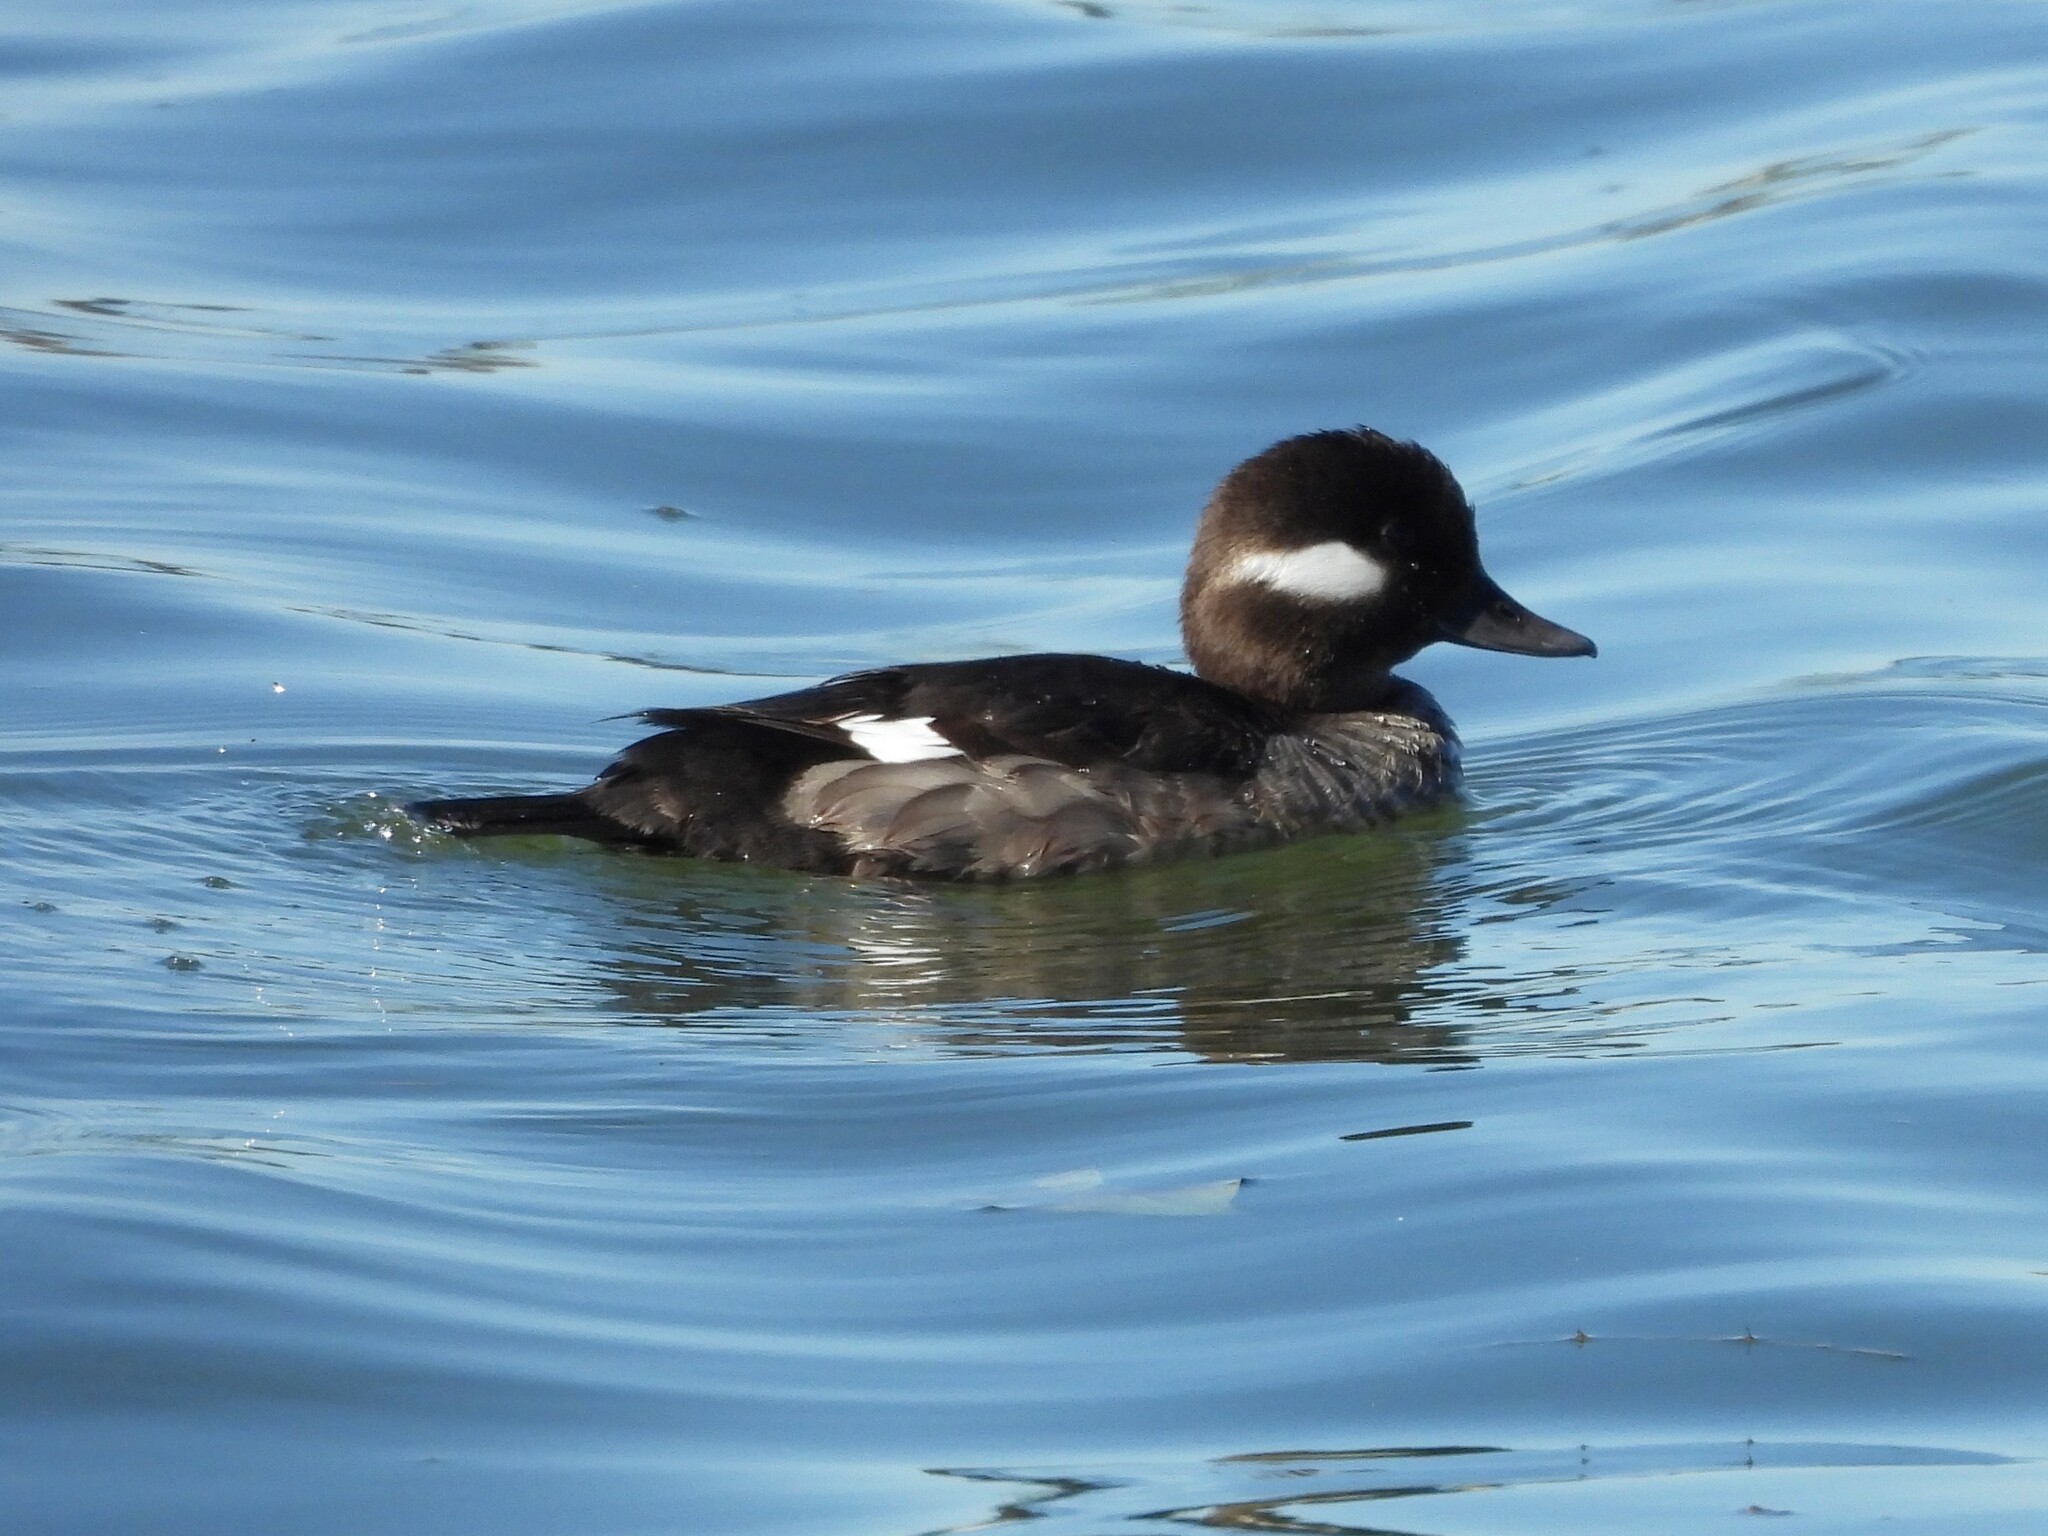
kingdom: Animalia
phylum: Chordata
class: Aves
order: Anseriformes
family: Anatidae
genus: Bucephala
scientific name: Bucephala albeola
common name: Bufflehead
